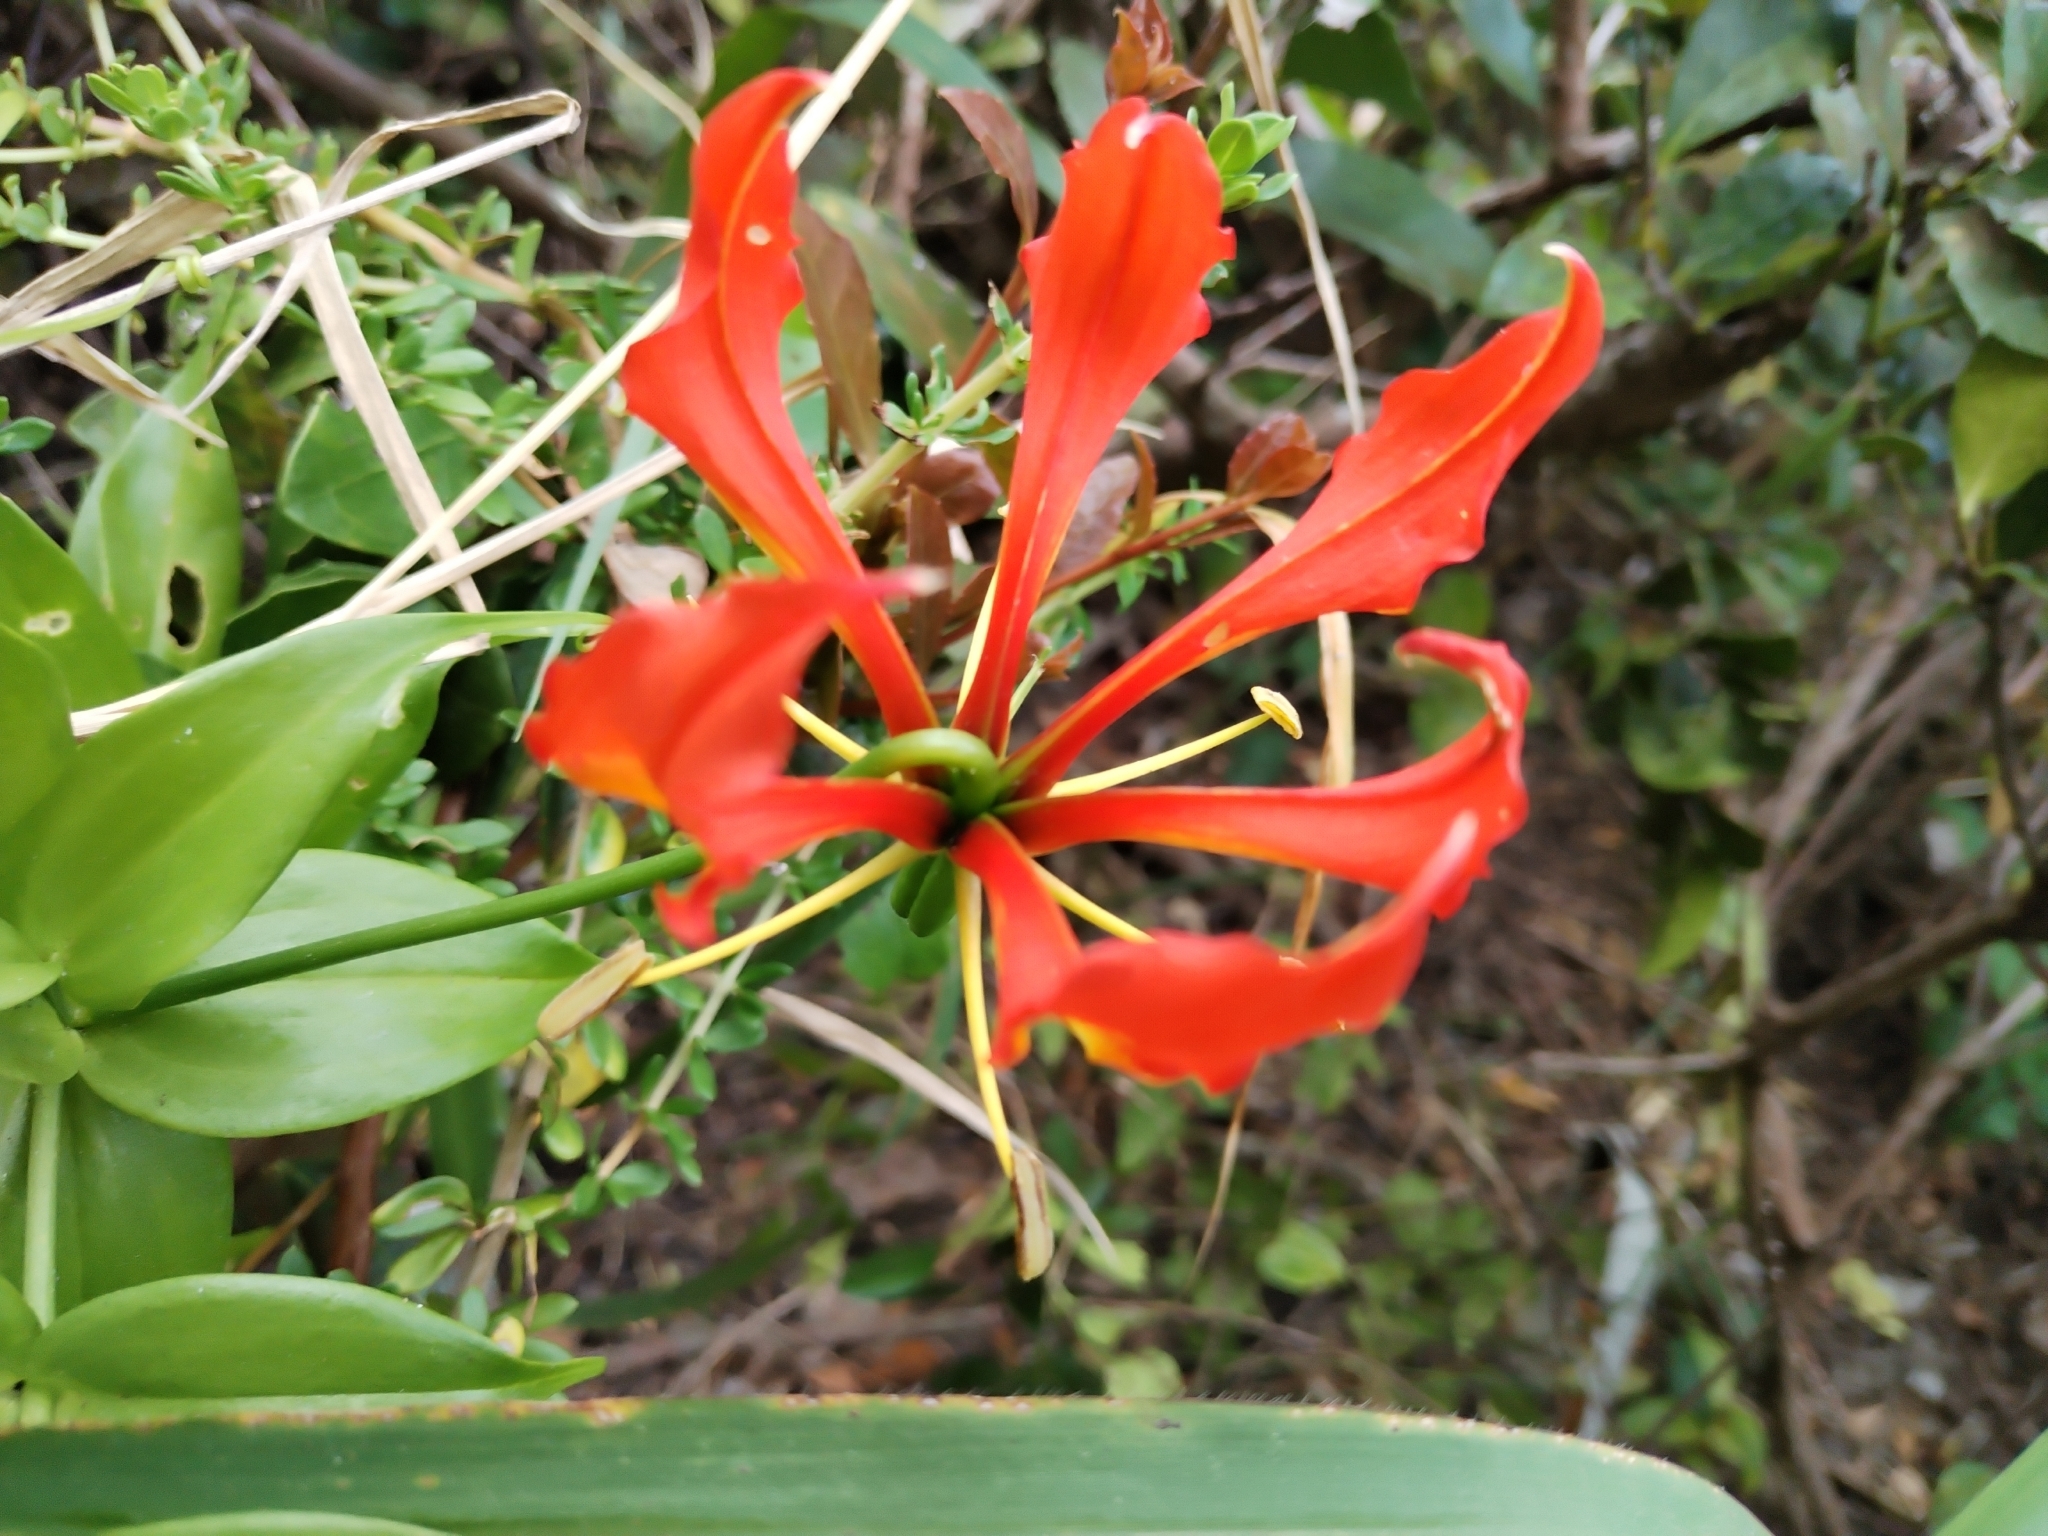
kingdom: Plantae
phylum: Tracheophyta
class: Liliopsida
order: Liliales
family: Colchicaceae
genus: Gloriosa
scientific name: Gloriosa superba
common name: Flame lily
